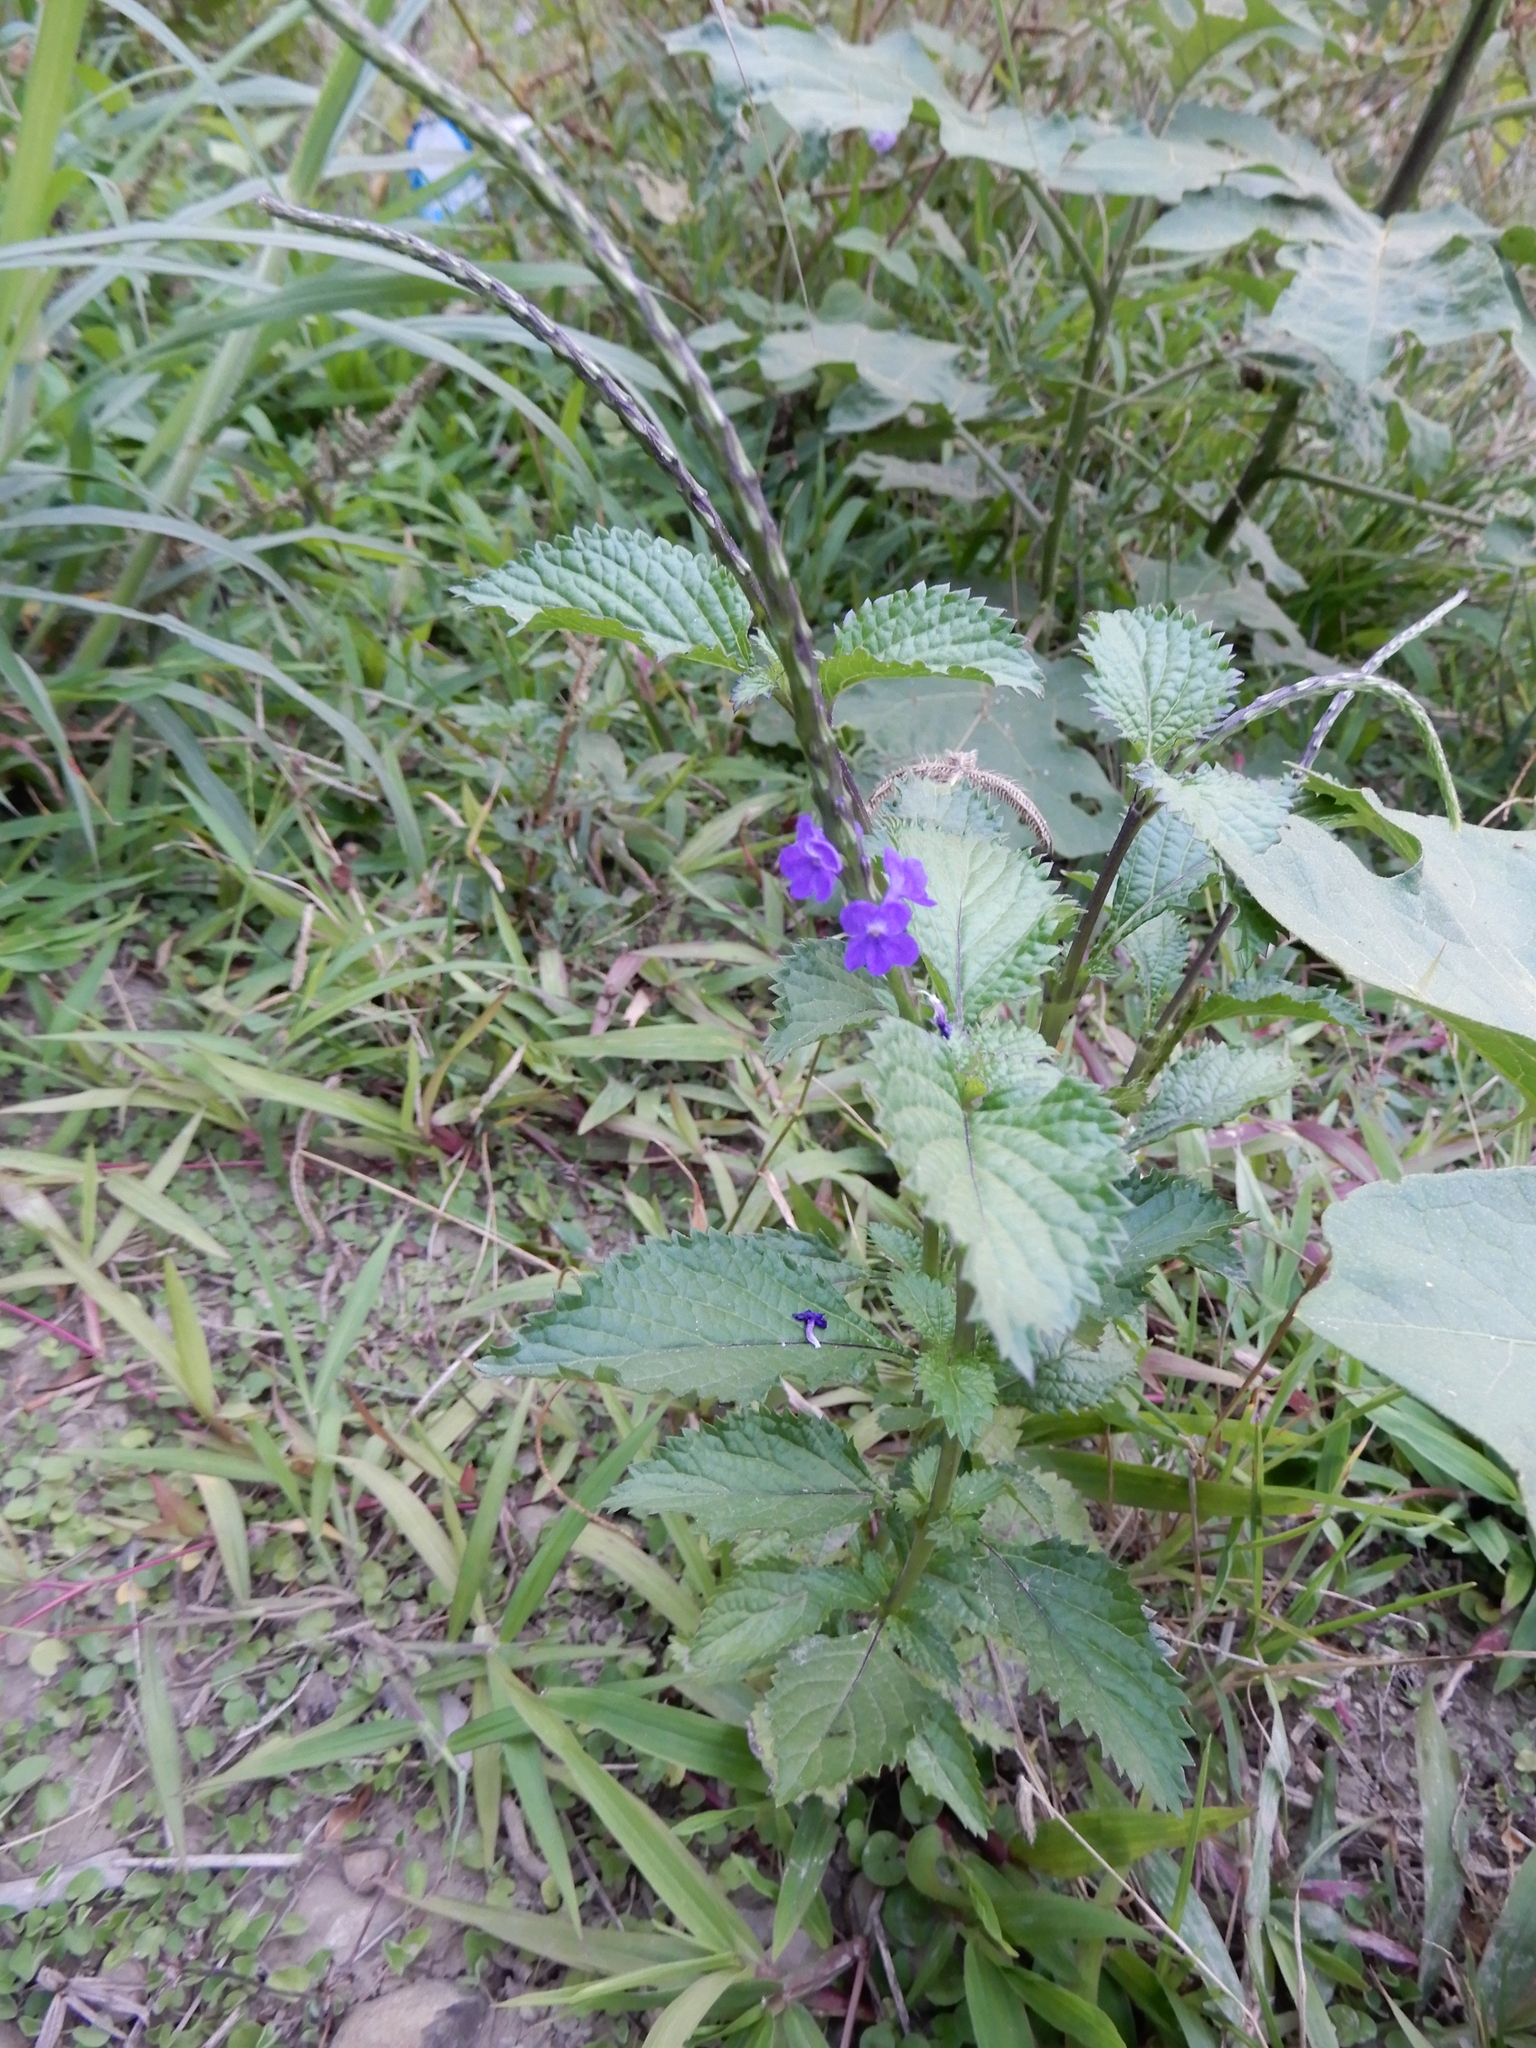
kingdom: Plantae
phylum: Tracheophyta
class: Magnoliopsida
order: Lamiales
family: Verbenaceae
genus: Stachytarpheta
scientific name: Stachytarpheta urticifolia
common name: Nettleleaf velvetberry
